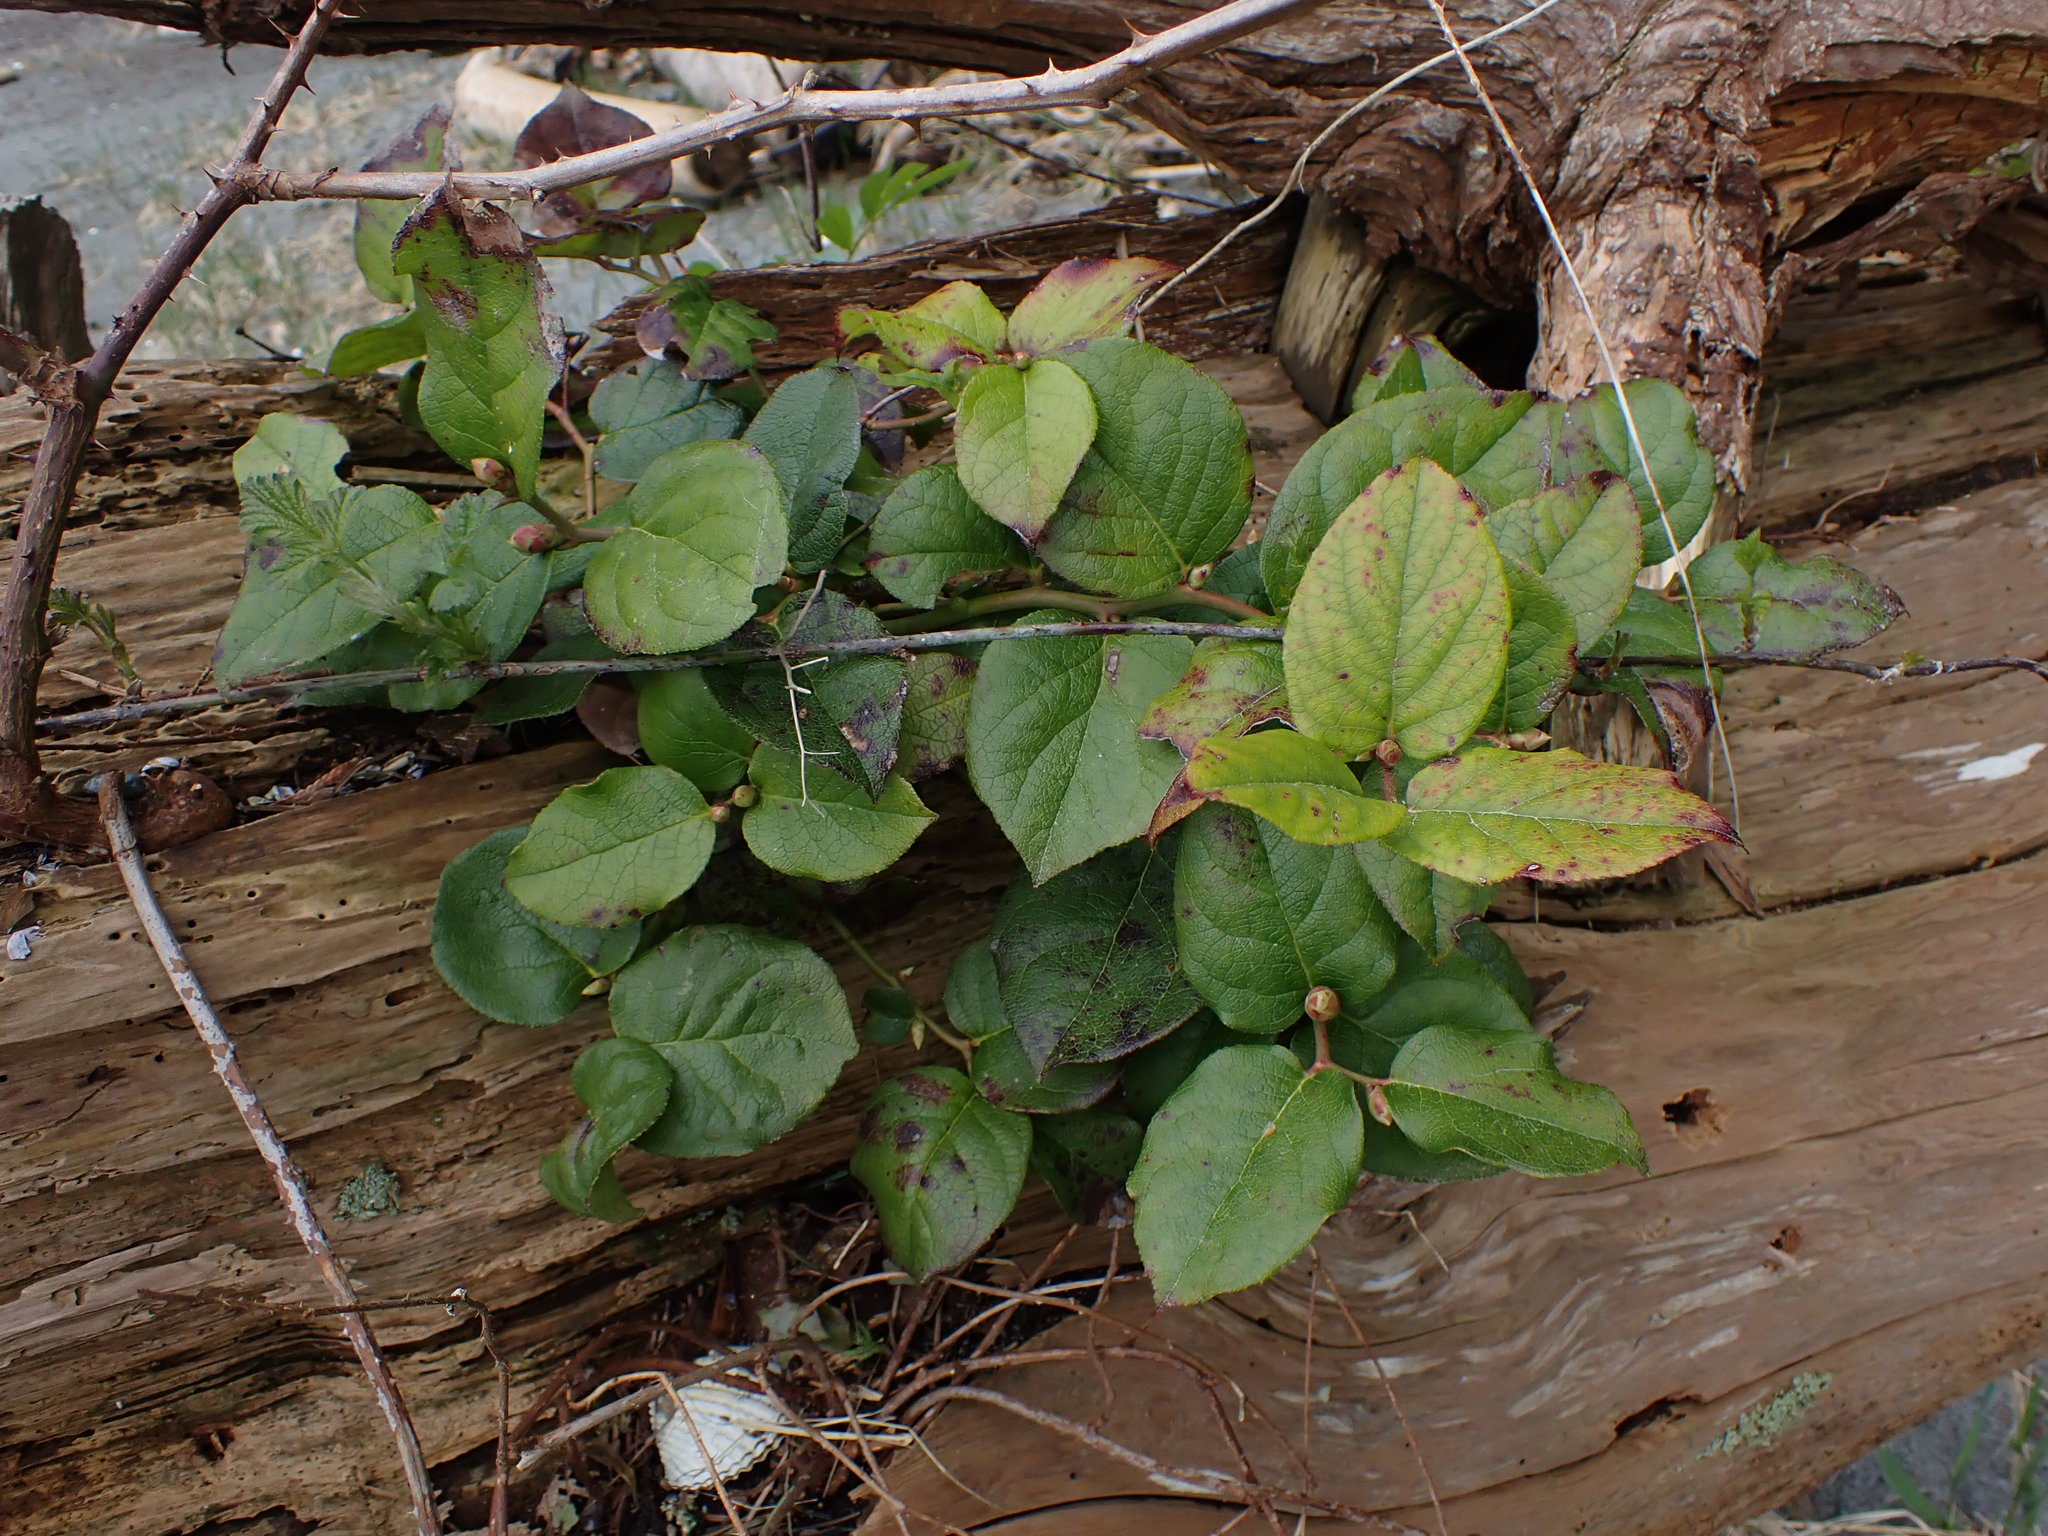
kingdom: Plantae
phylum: Tracheophyta
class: Magnoliopsida
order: Ericales
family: Ericaceae
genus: Gaultheria
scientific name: Gaultheria shallon
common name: Shallon
